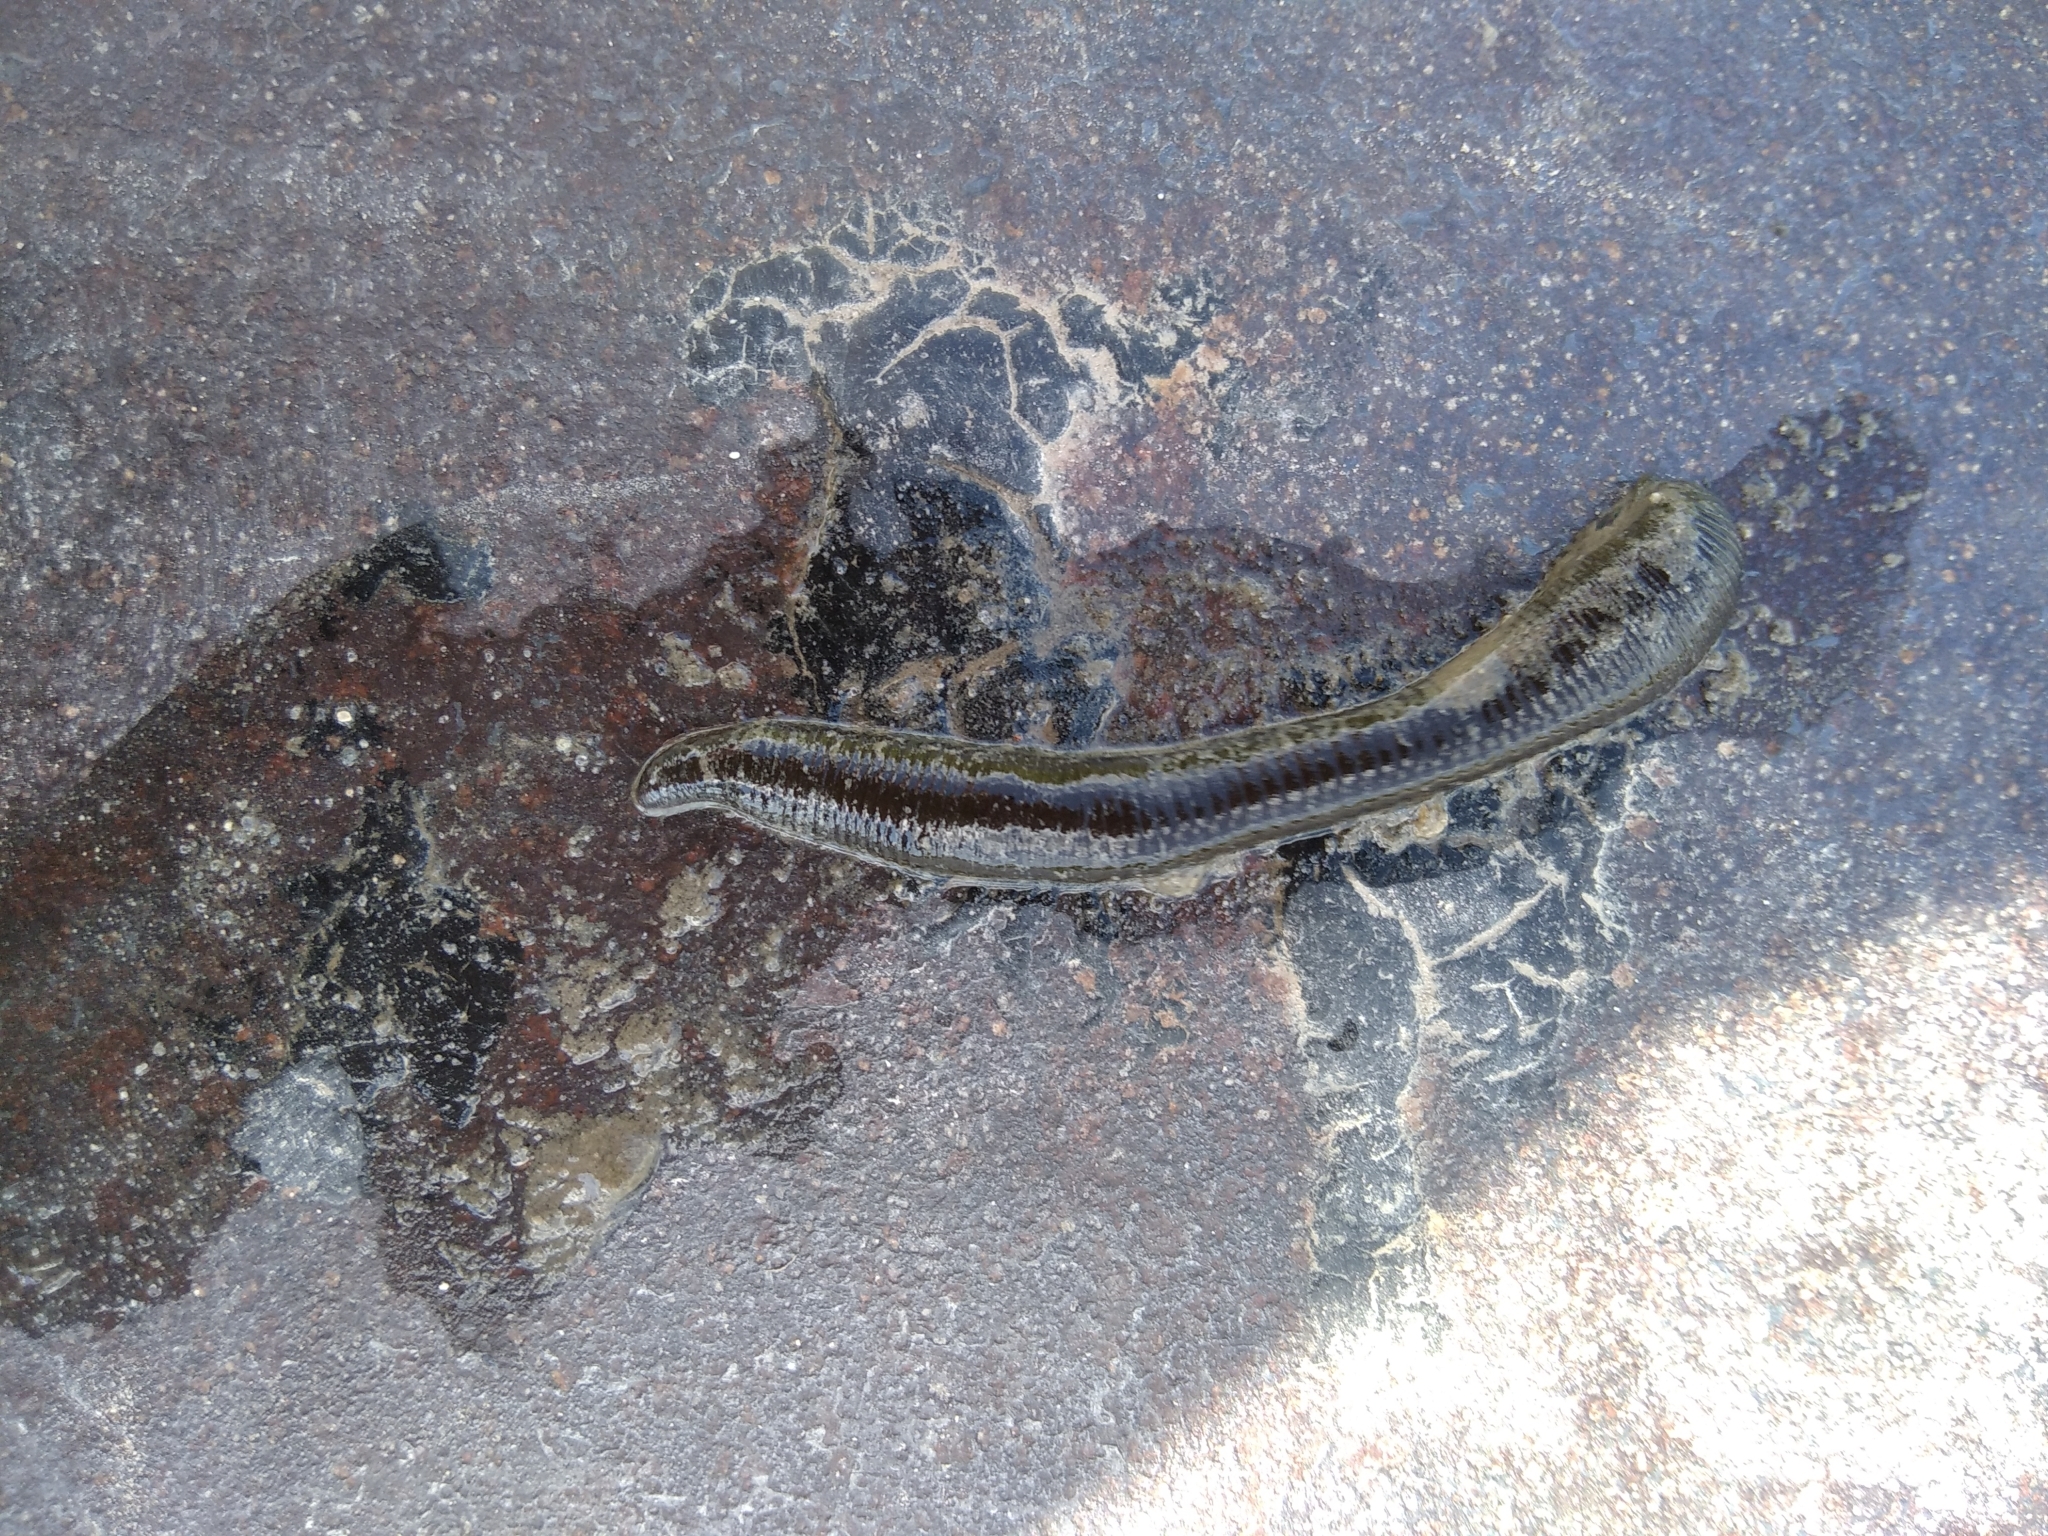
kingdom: Animalia
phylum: Annelida
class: Clitellata
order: Arhynchobdellida
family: Haemopidae
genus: Haemopis
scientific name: Haemopis sanguisuga
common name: Horse leech
